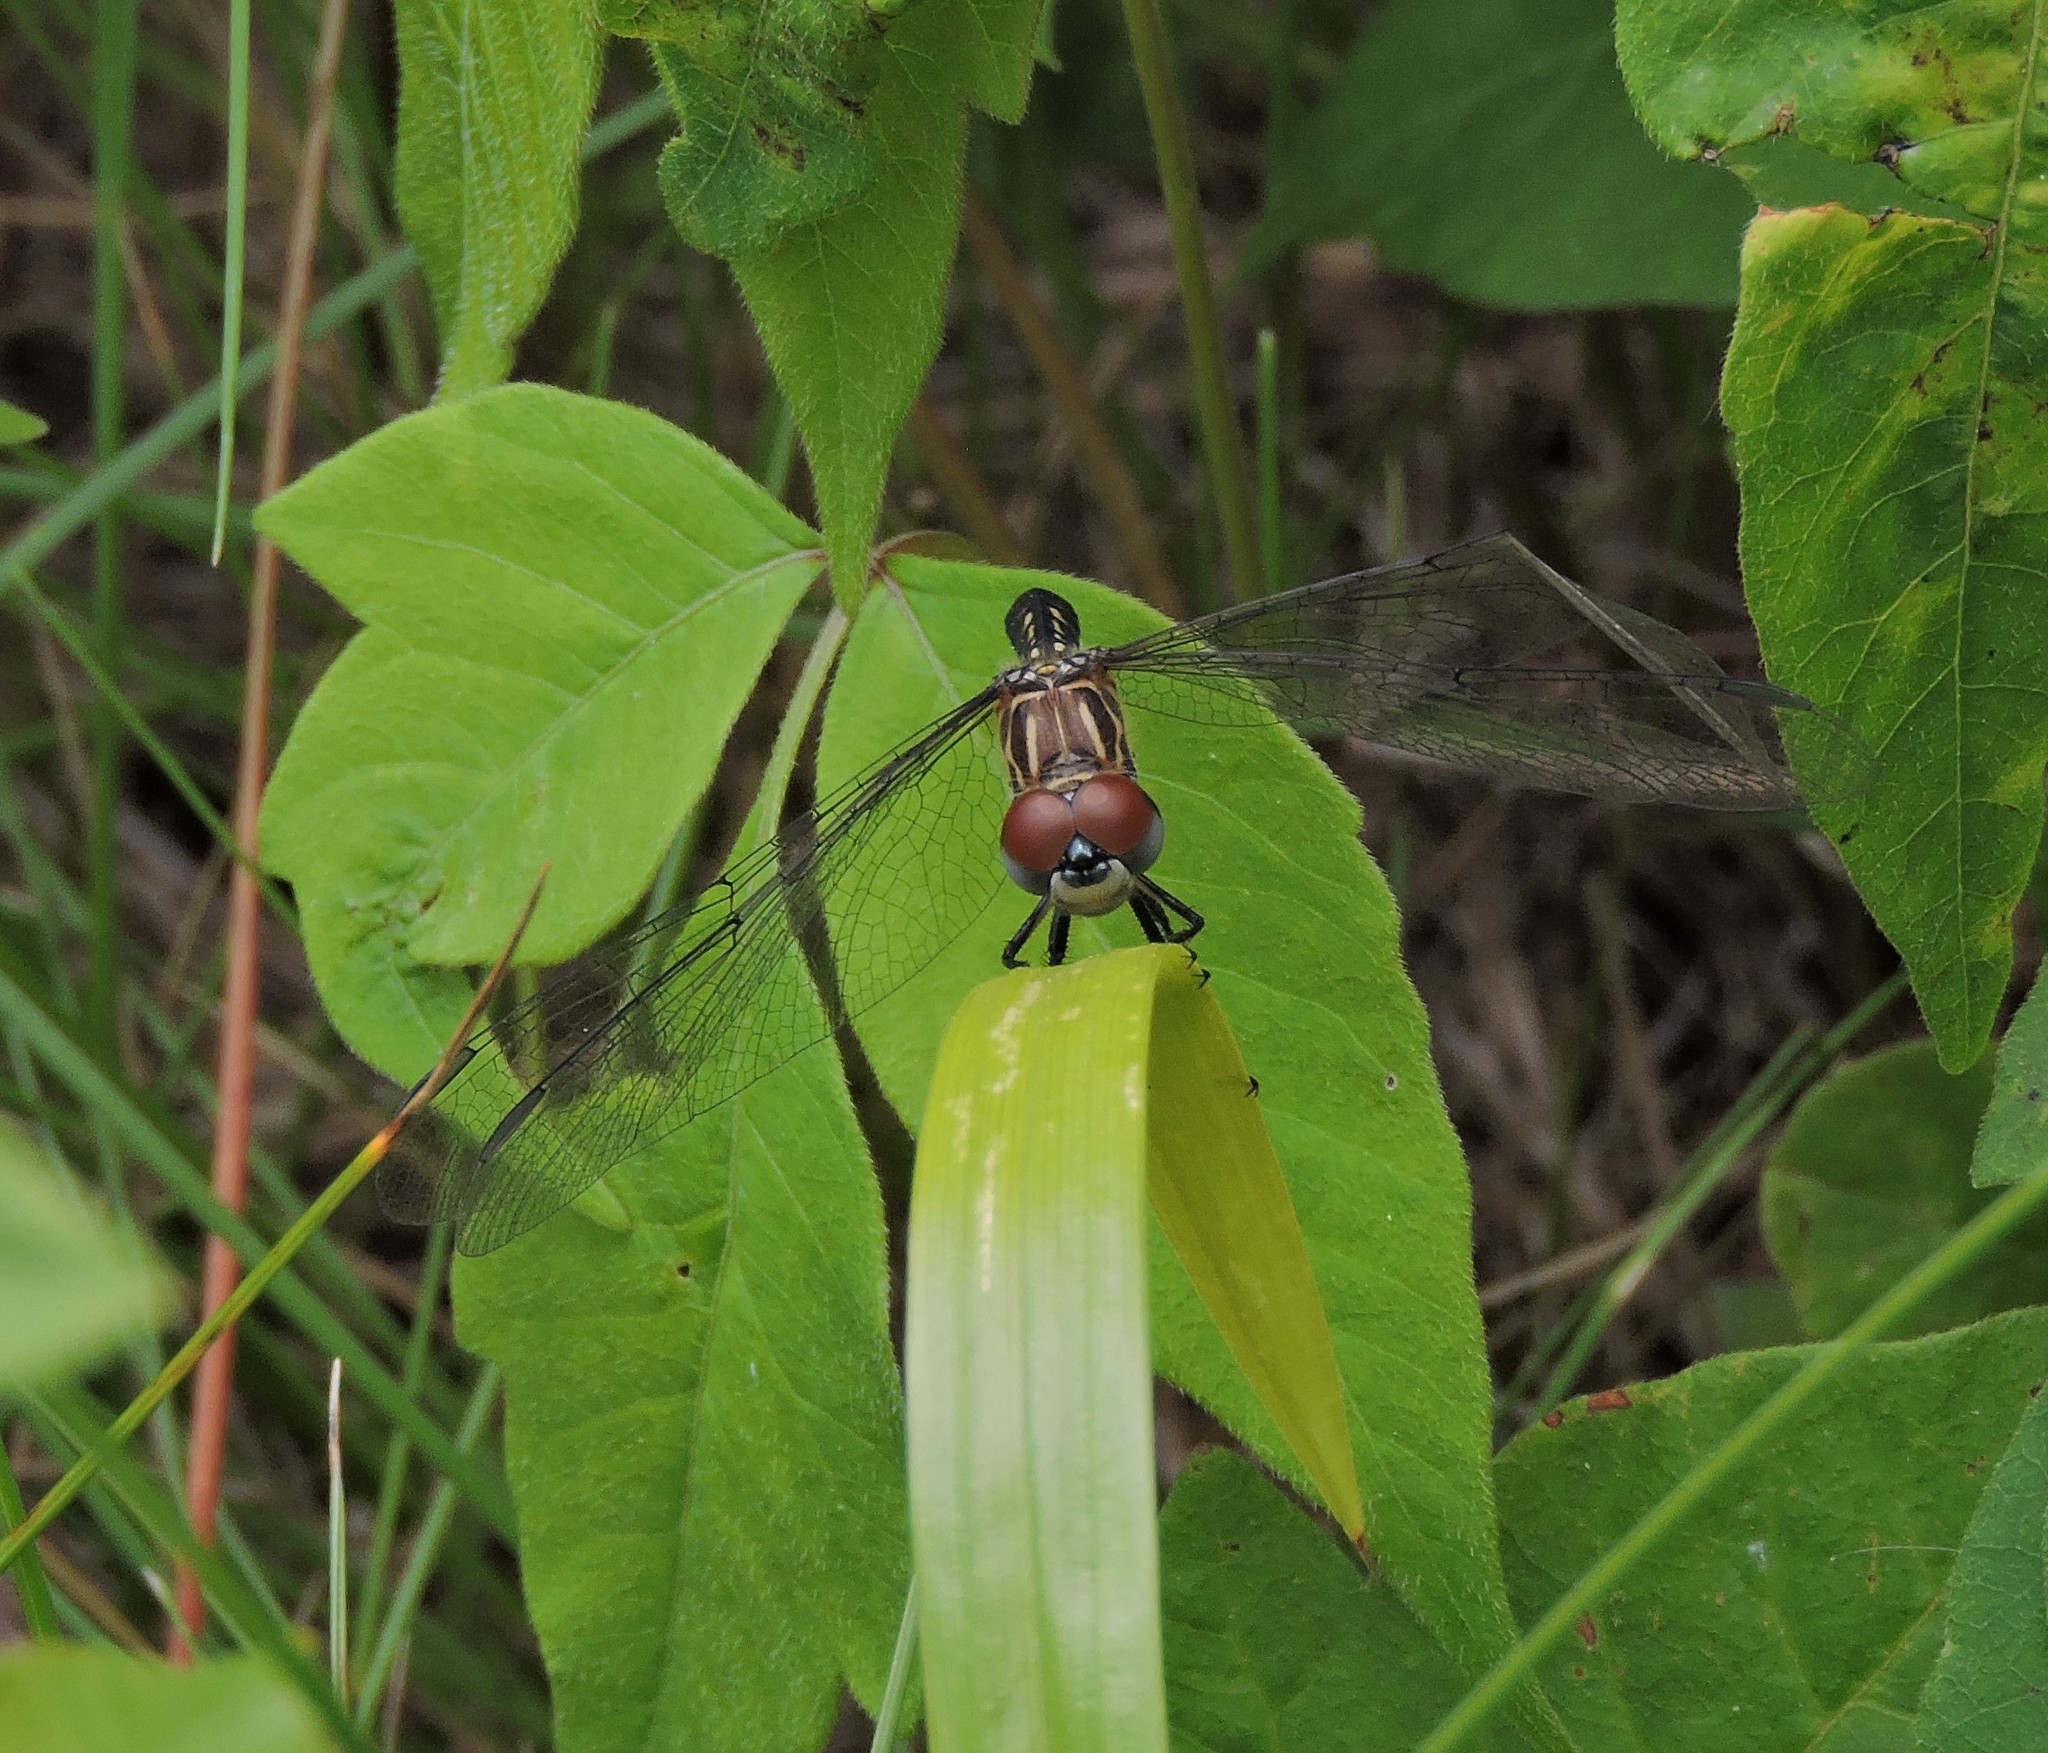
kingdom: Animalia
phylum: Arthropoda
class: Insecta
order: Odonata
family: Libellulidae
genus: Pachydiplax
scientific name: Pachydiplax longipennis
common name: Blue dasher
